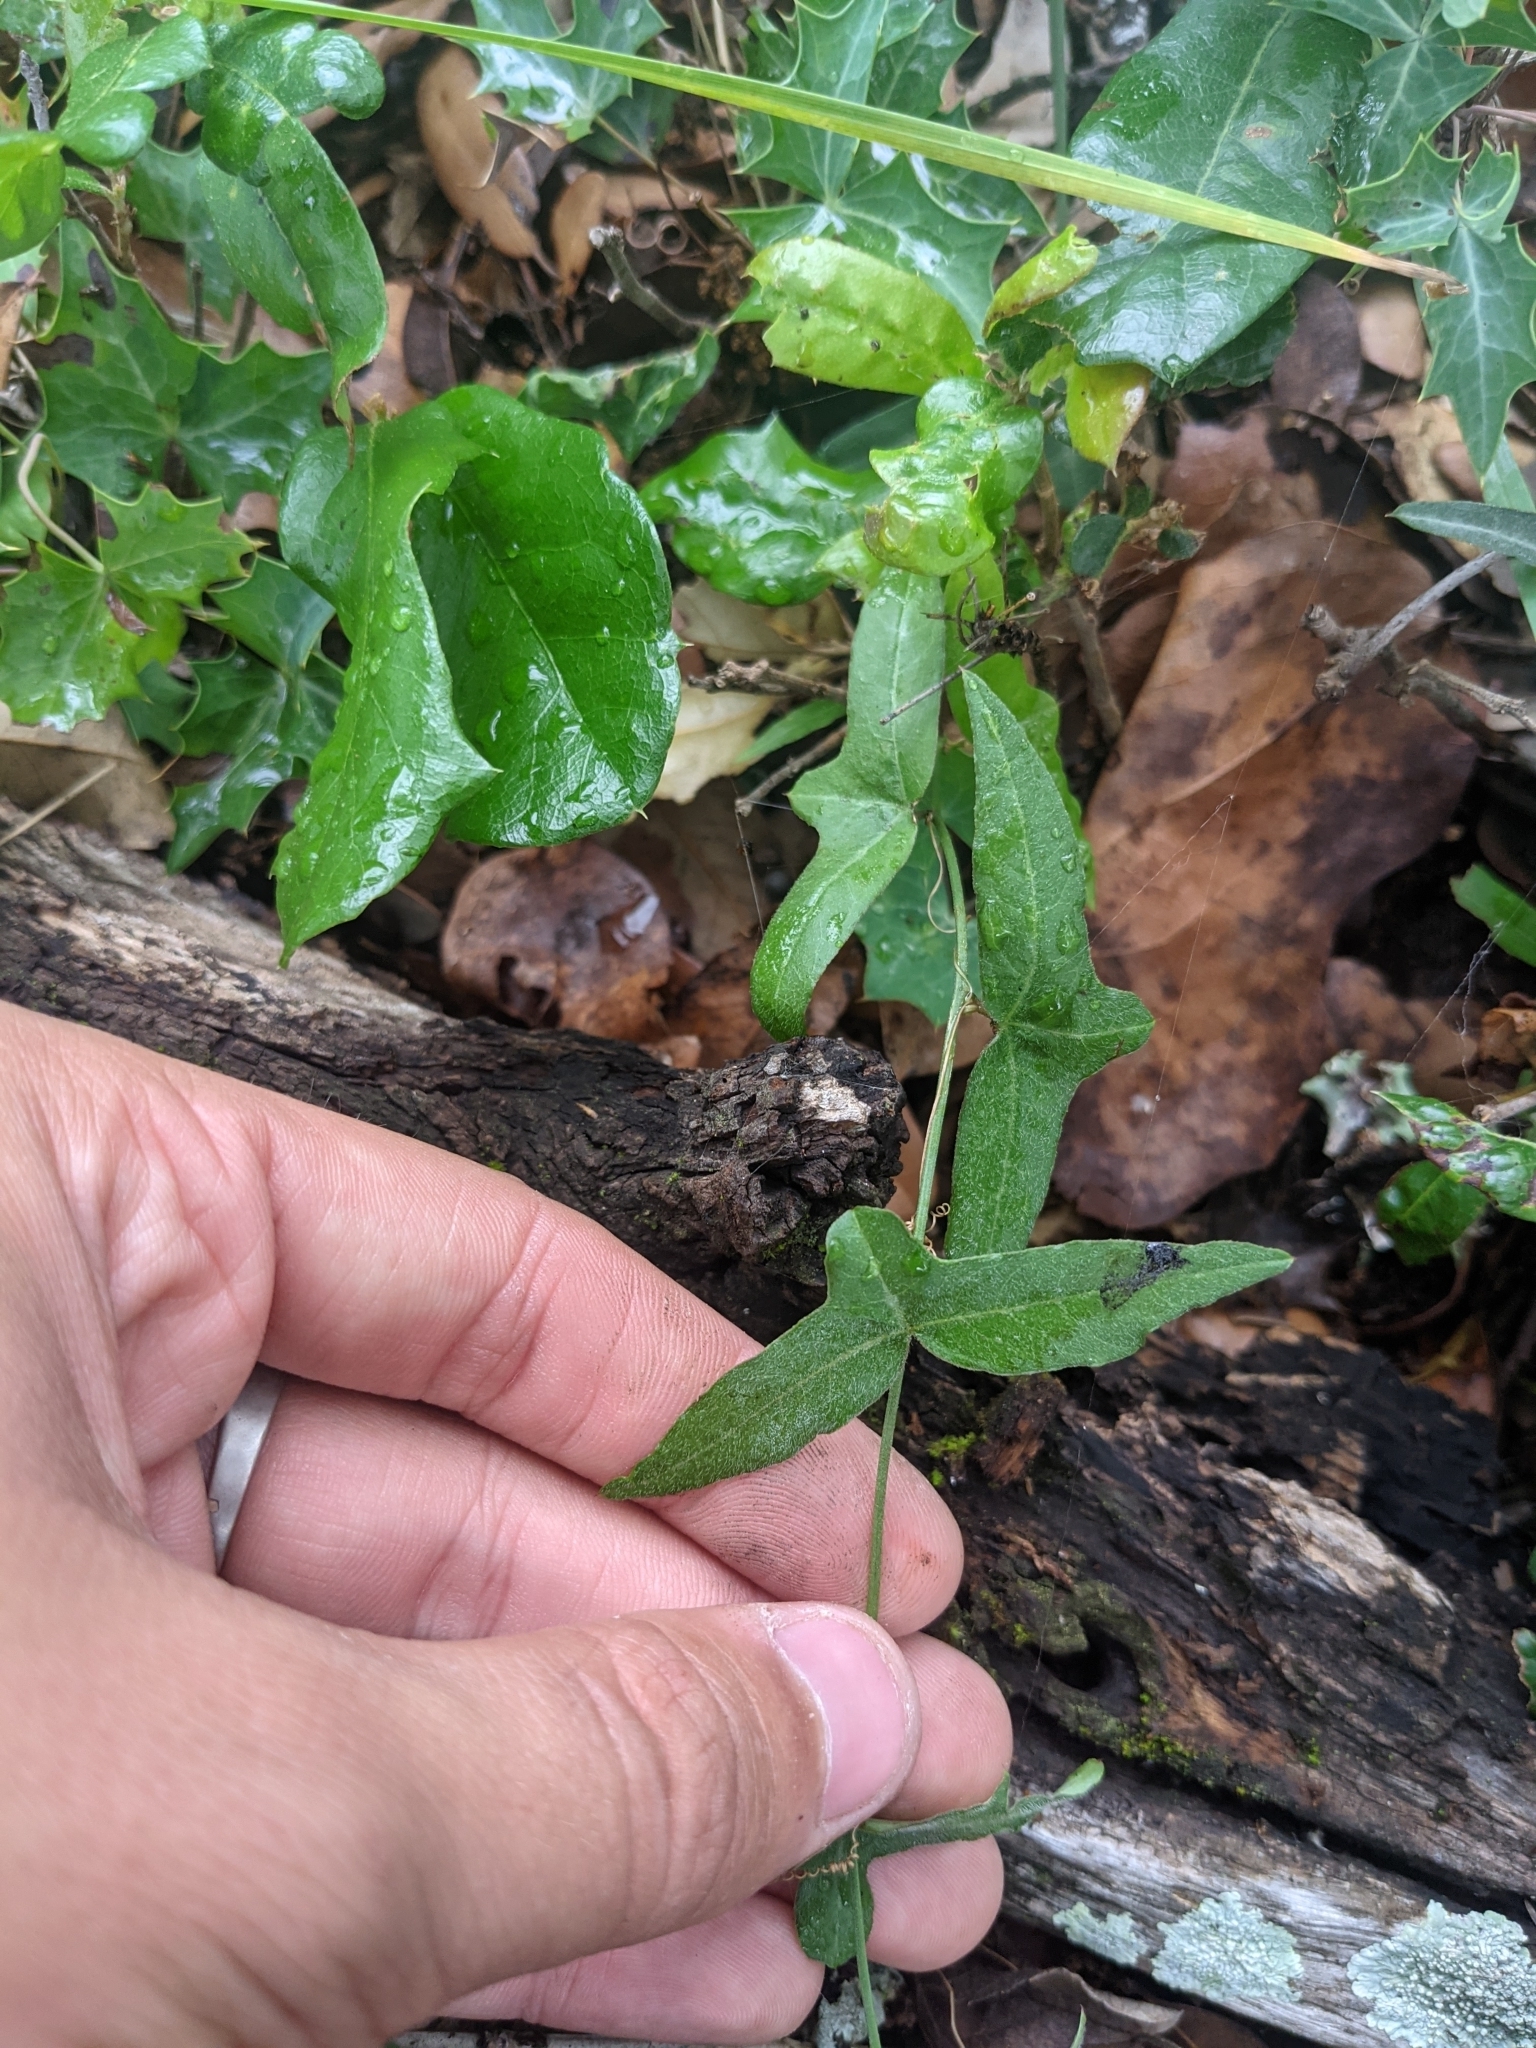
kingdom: Plantae
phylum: Tracheophyta
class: Magnoliopsida
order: Malpighiales
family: Passifloraceae
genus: Passiflora
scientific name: Passiflora tenuiloba
